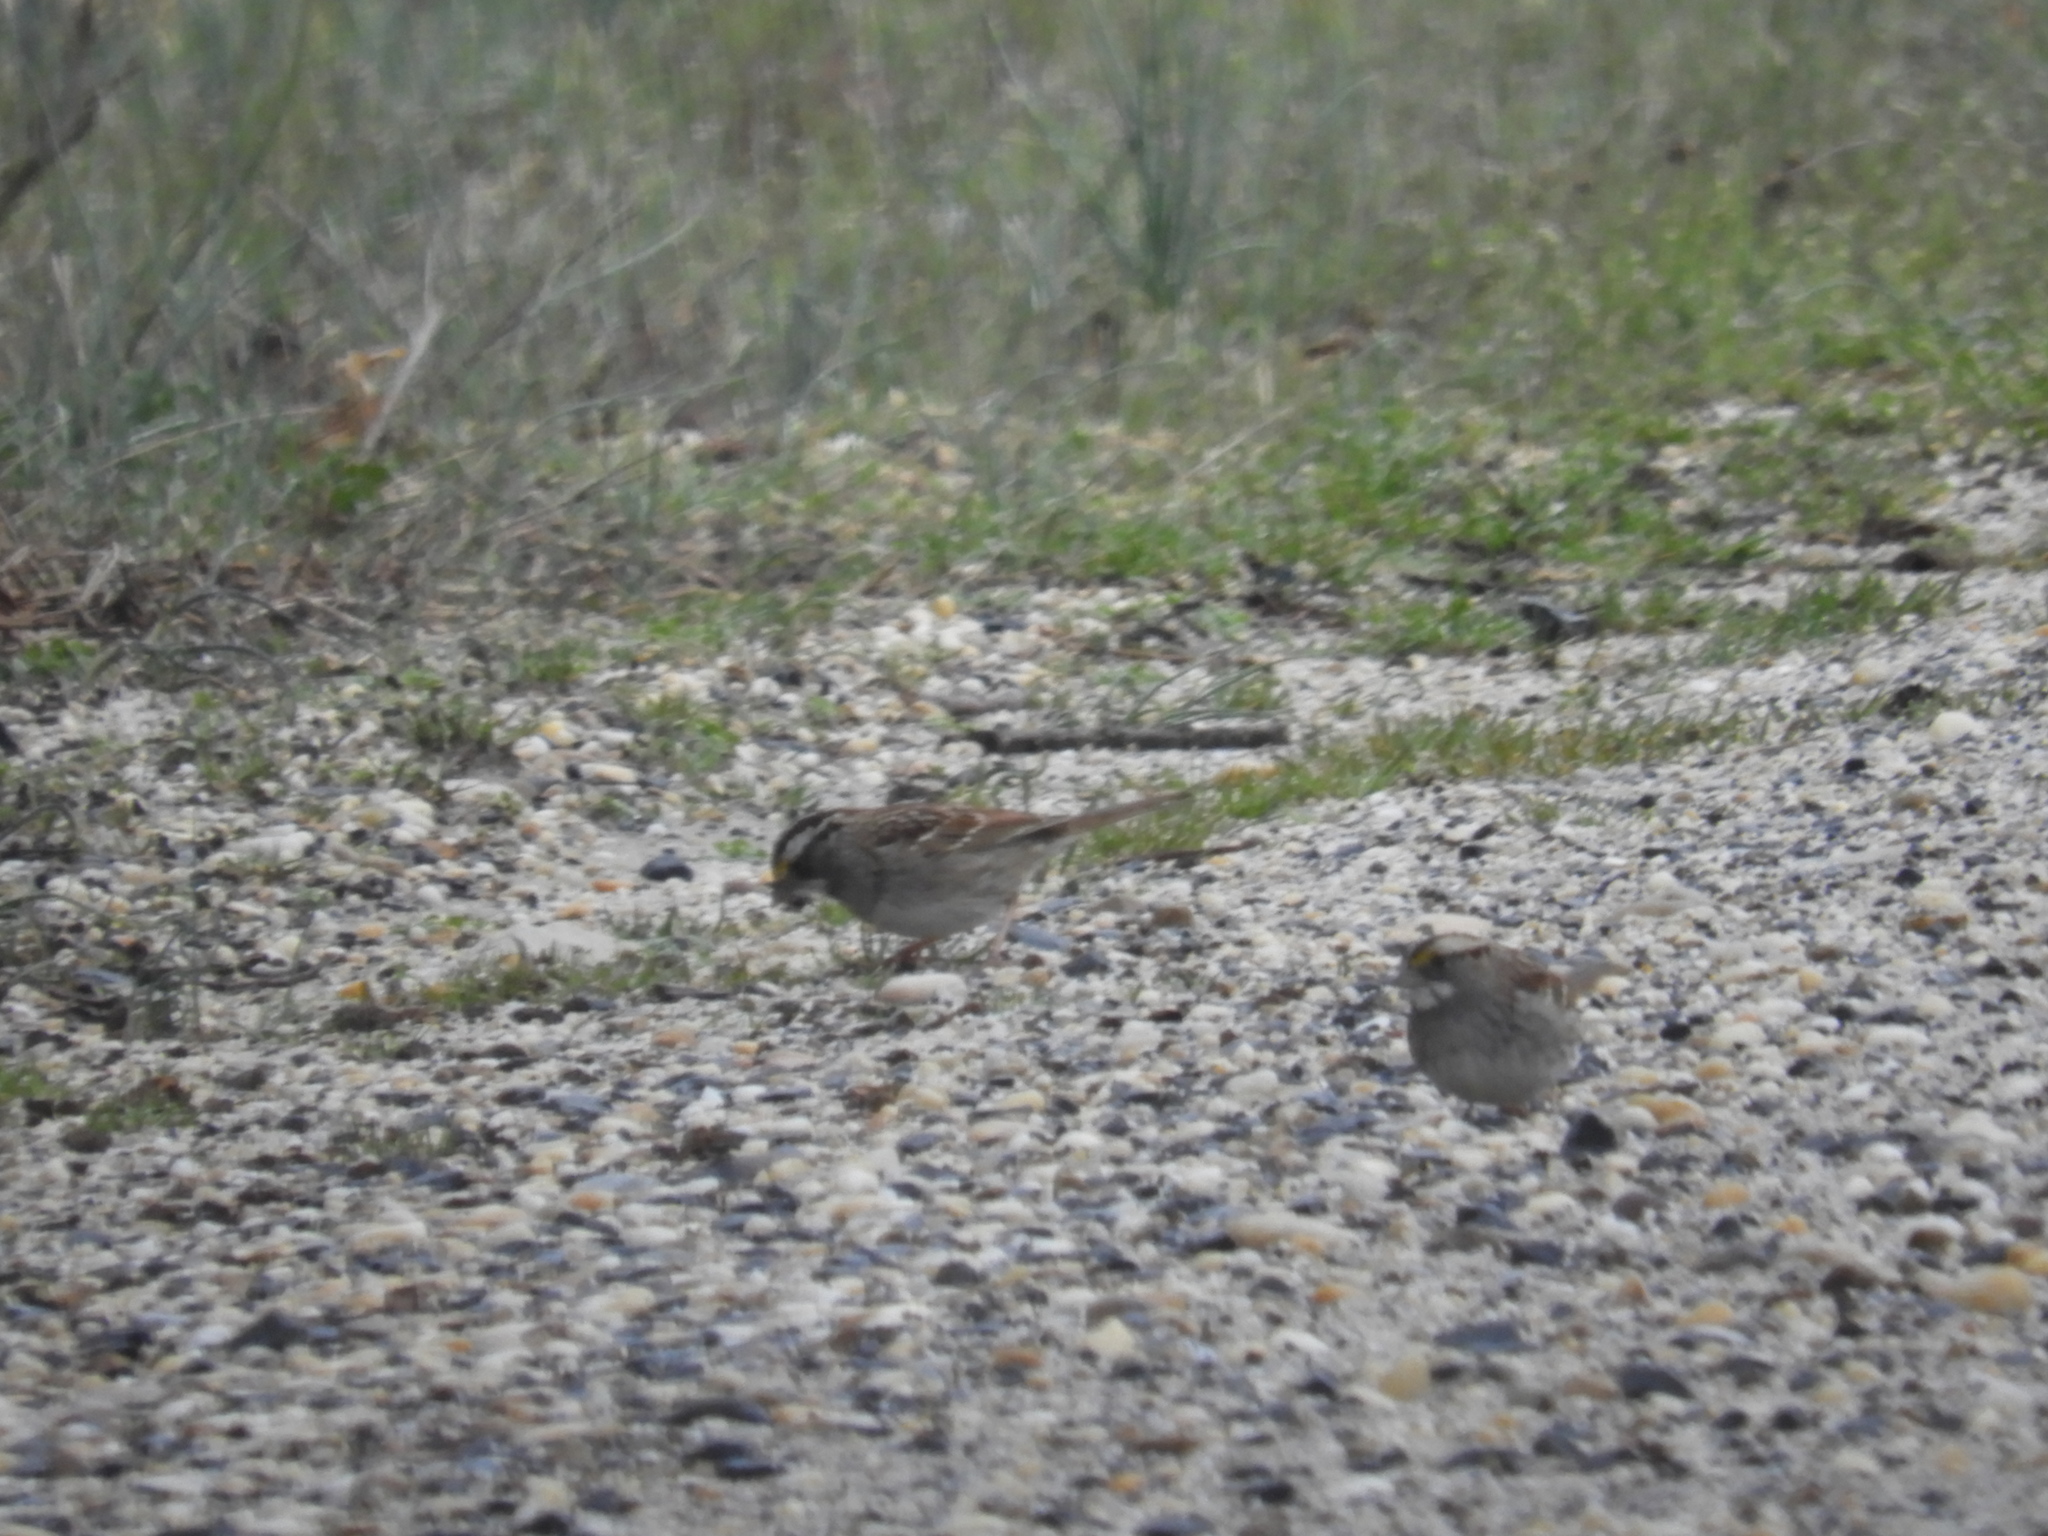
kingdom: Animalia
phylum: Chordata
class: Aves
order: Passeriformes
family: Passerellidae
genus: Zonotrichia
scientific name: Zonotrichia albicollis
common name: White-throated sparrow
